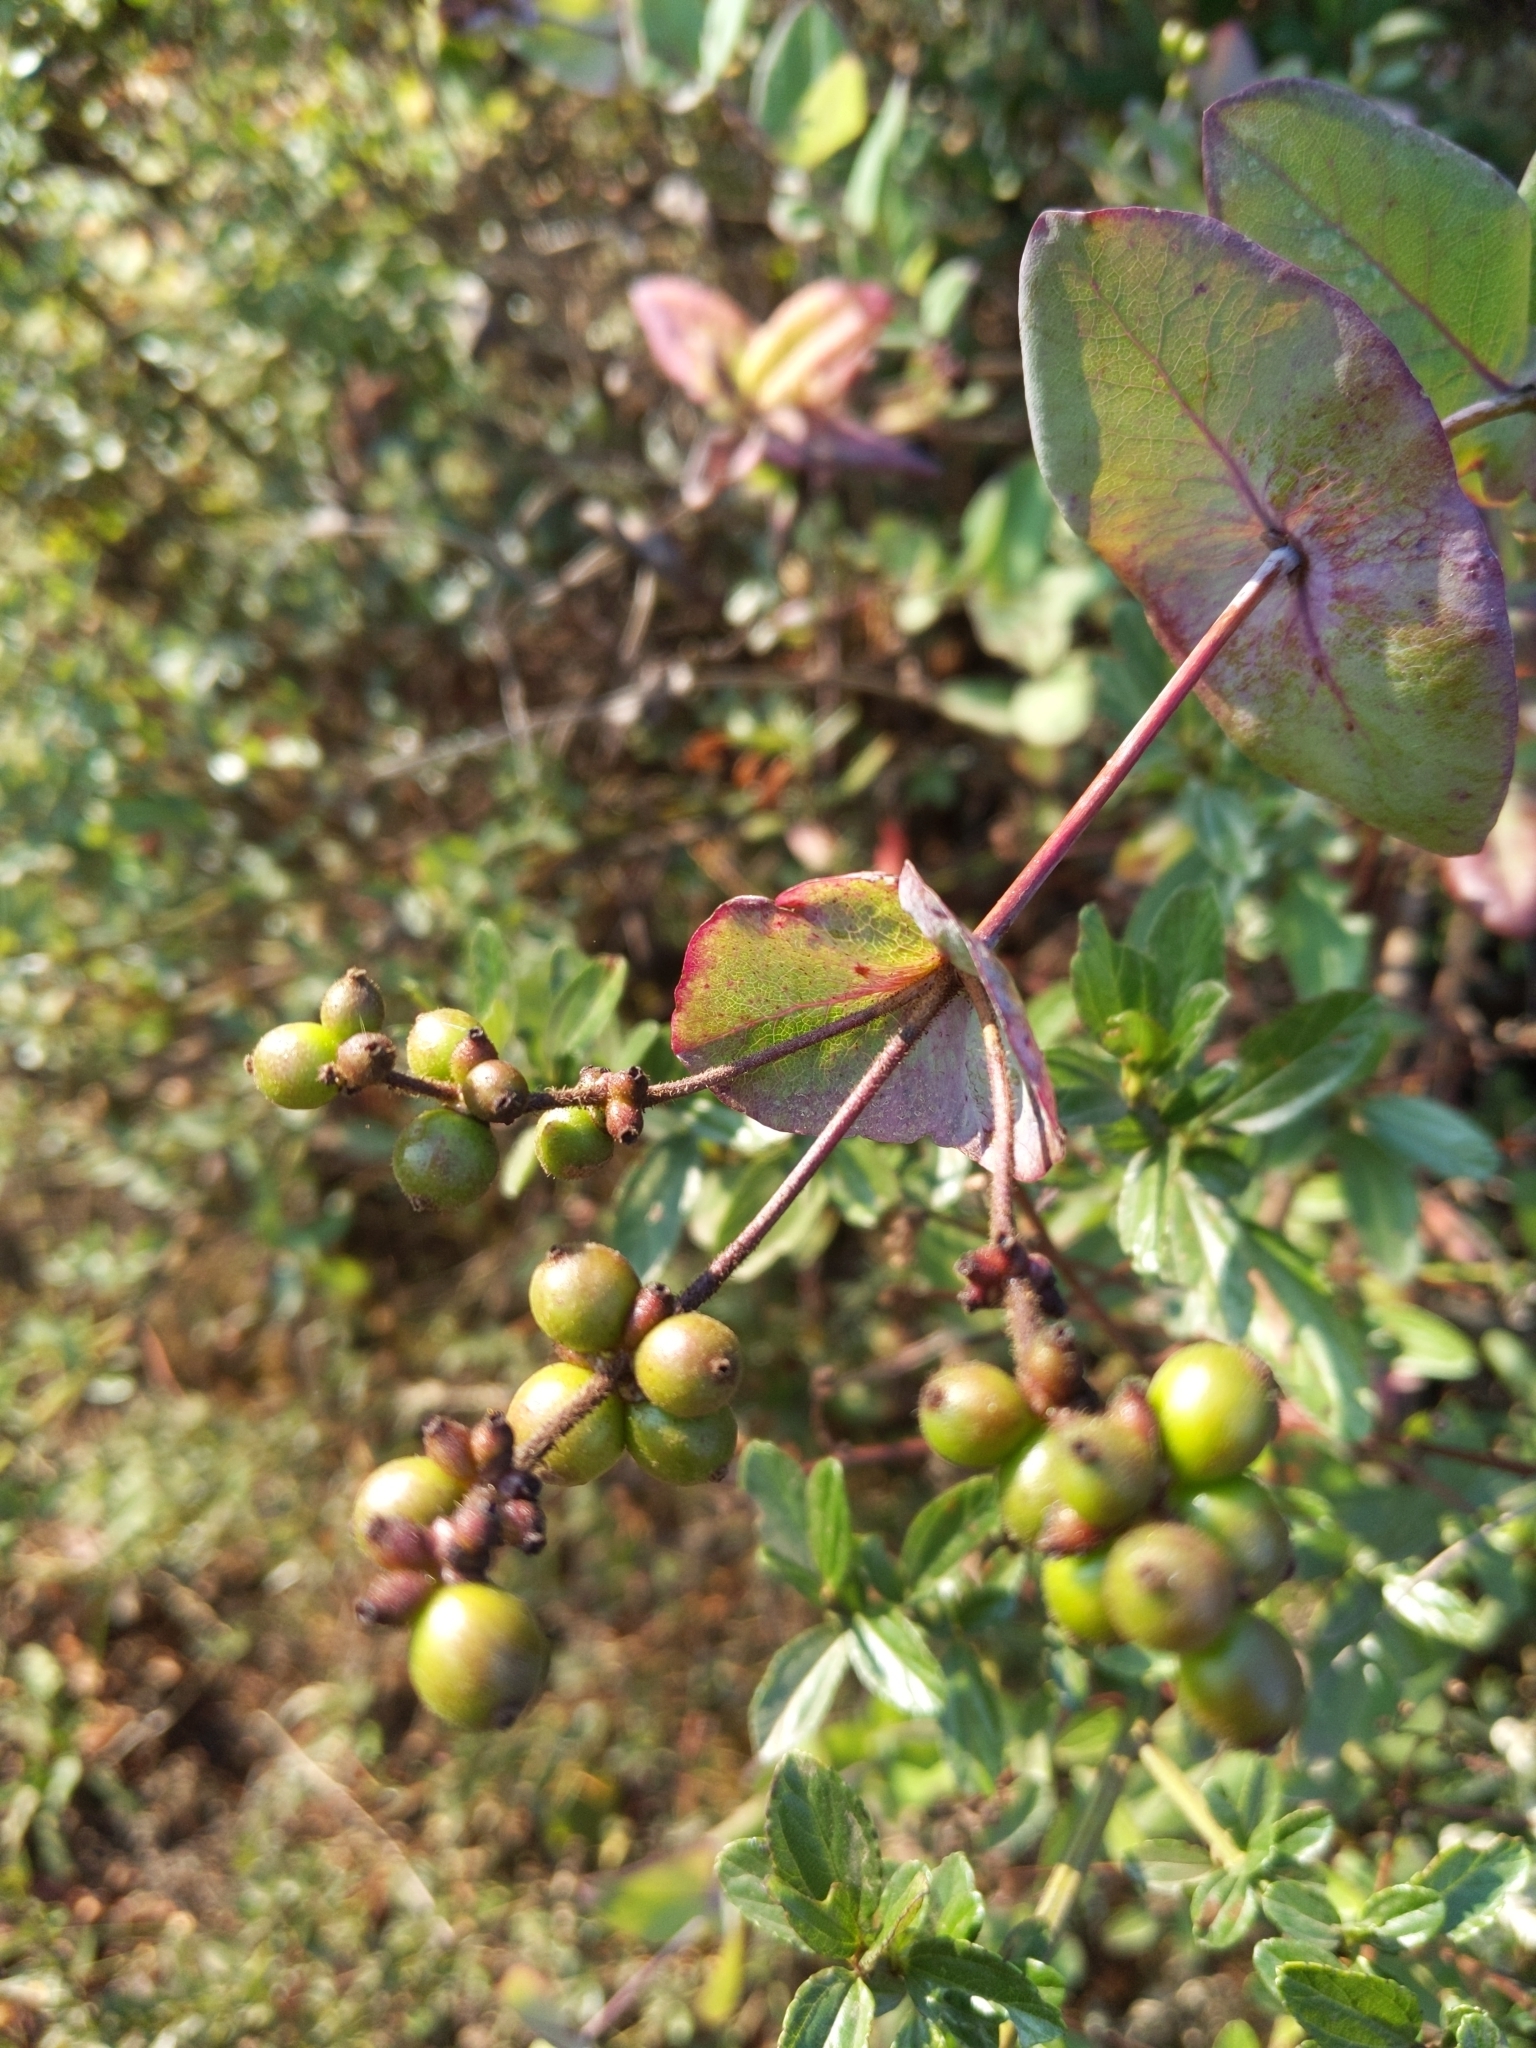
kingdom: Plantae
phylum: Tracheophyta
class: Magnoliopsida
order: Dipsacales
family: Caprifoliaceae
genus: Lonicera
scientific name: Lonicera hispidula
